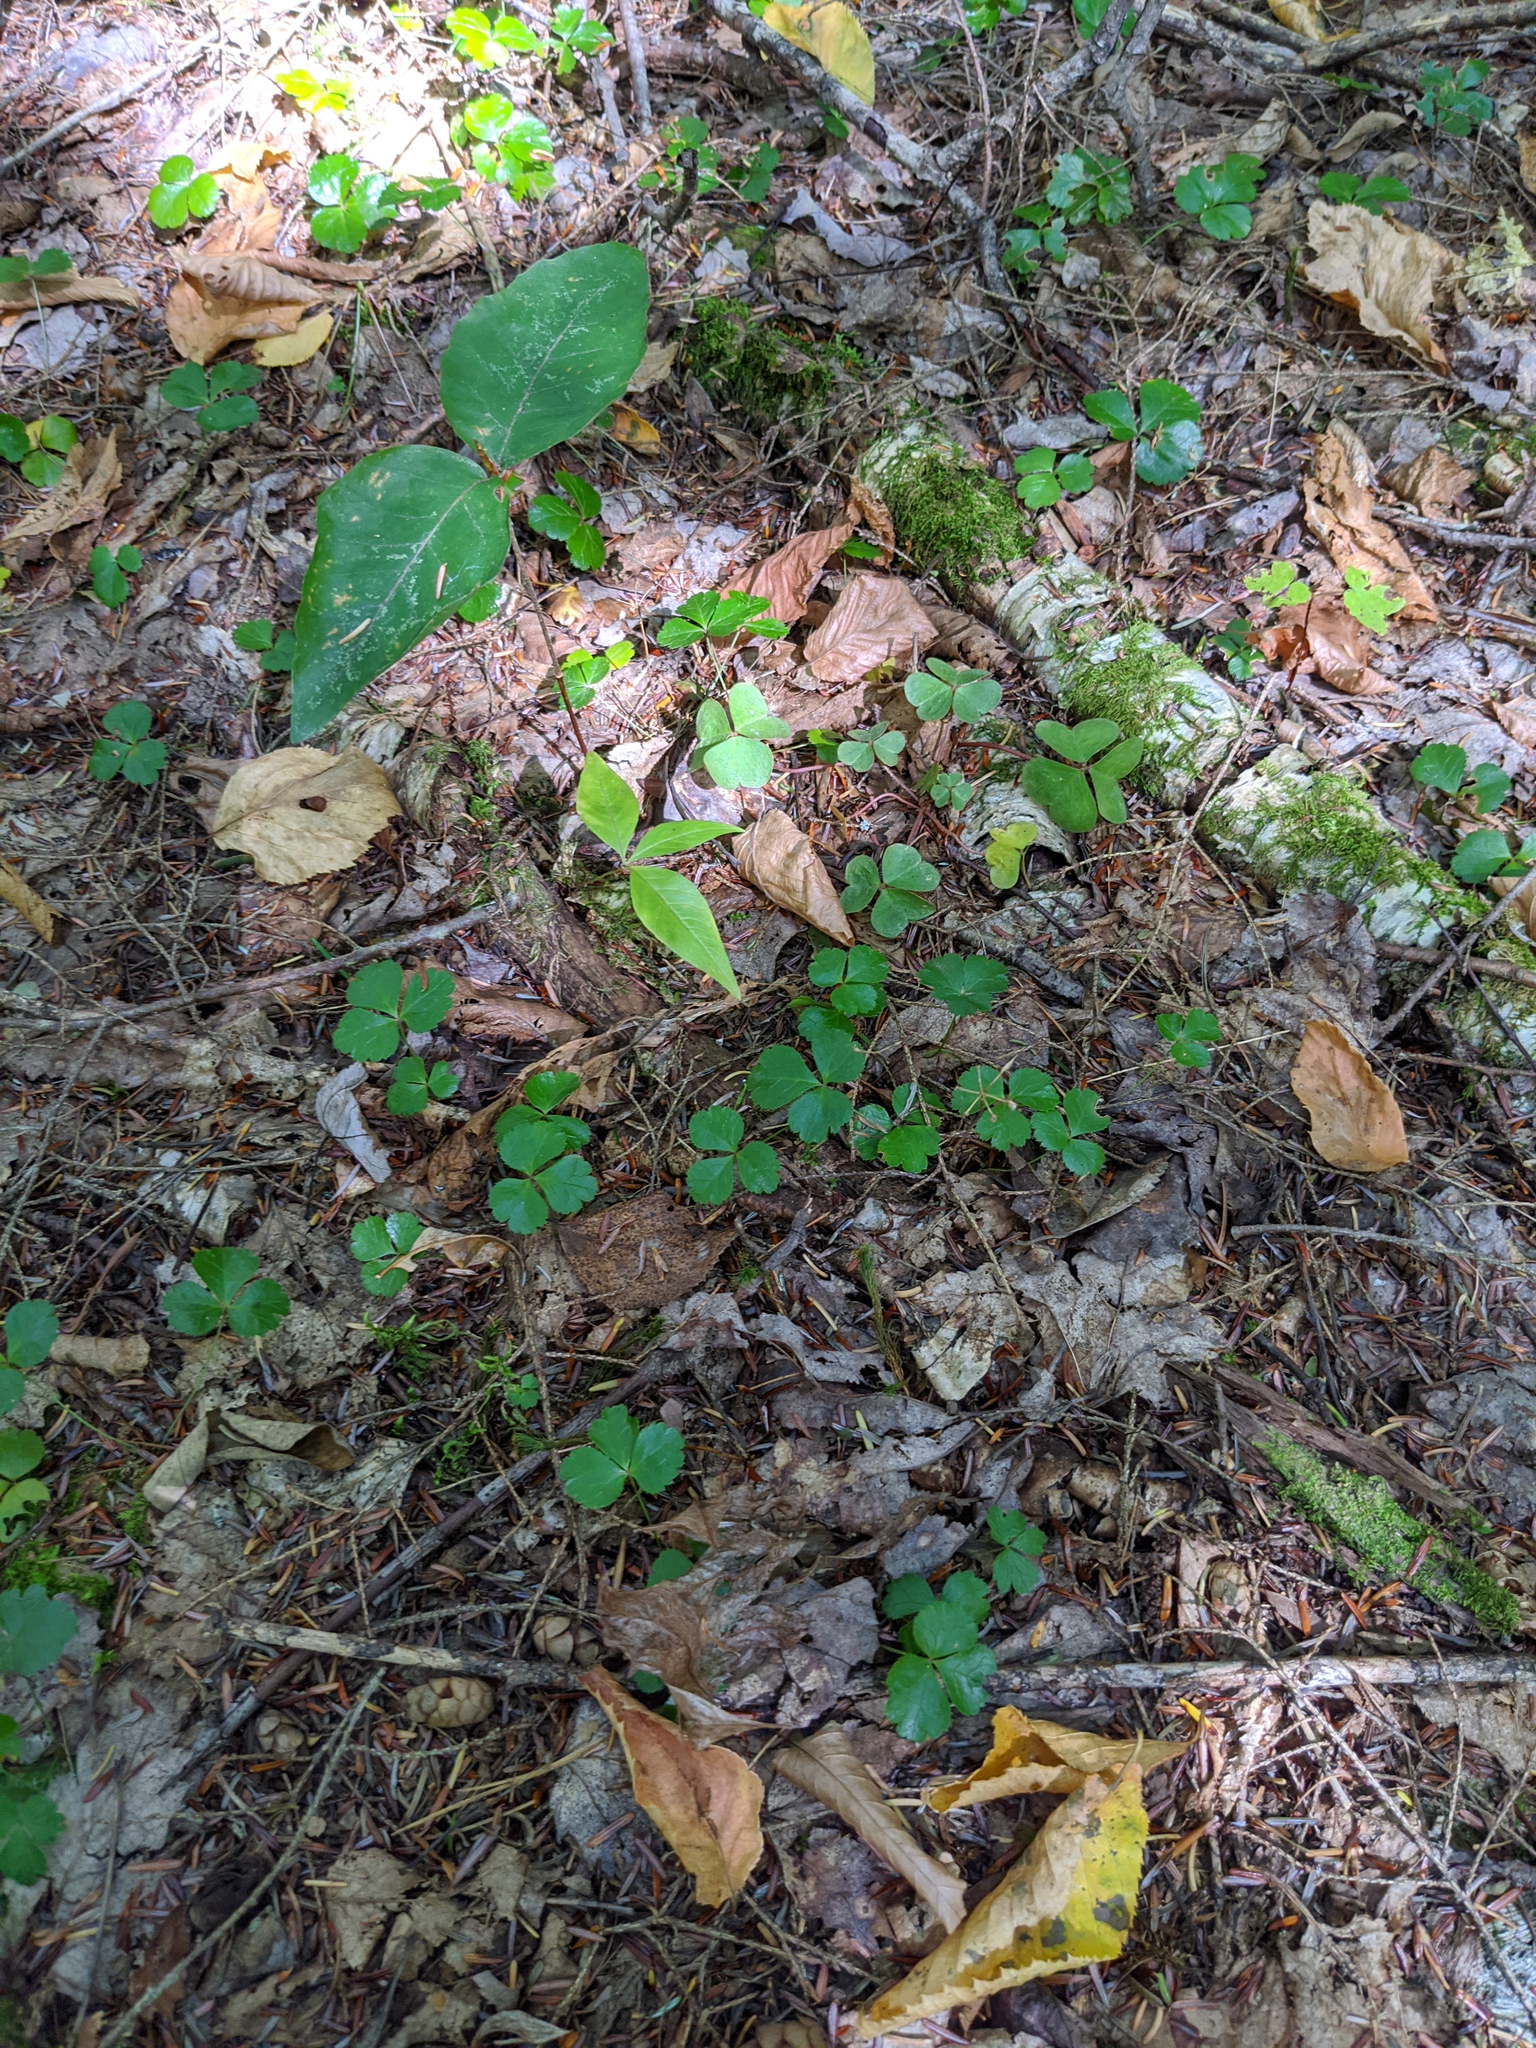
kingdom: Plantae
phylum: Tracheophyta
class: Magnoliopsida
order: Ranunculales
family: Ranunculaceae
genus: Coptis
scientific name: Coptis trifolia
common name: Canker-root
